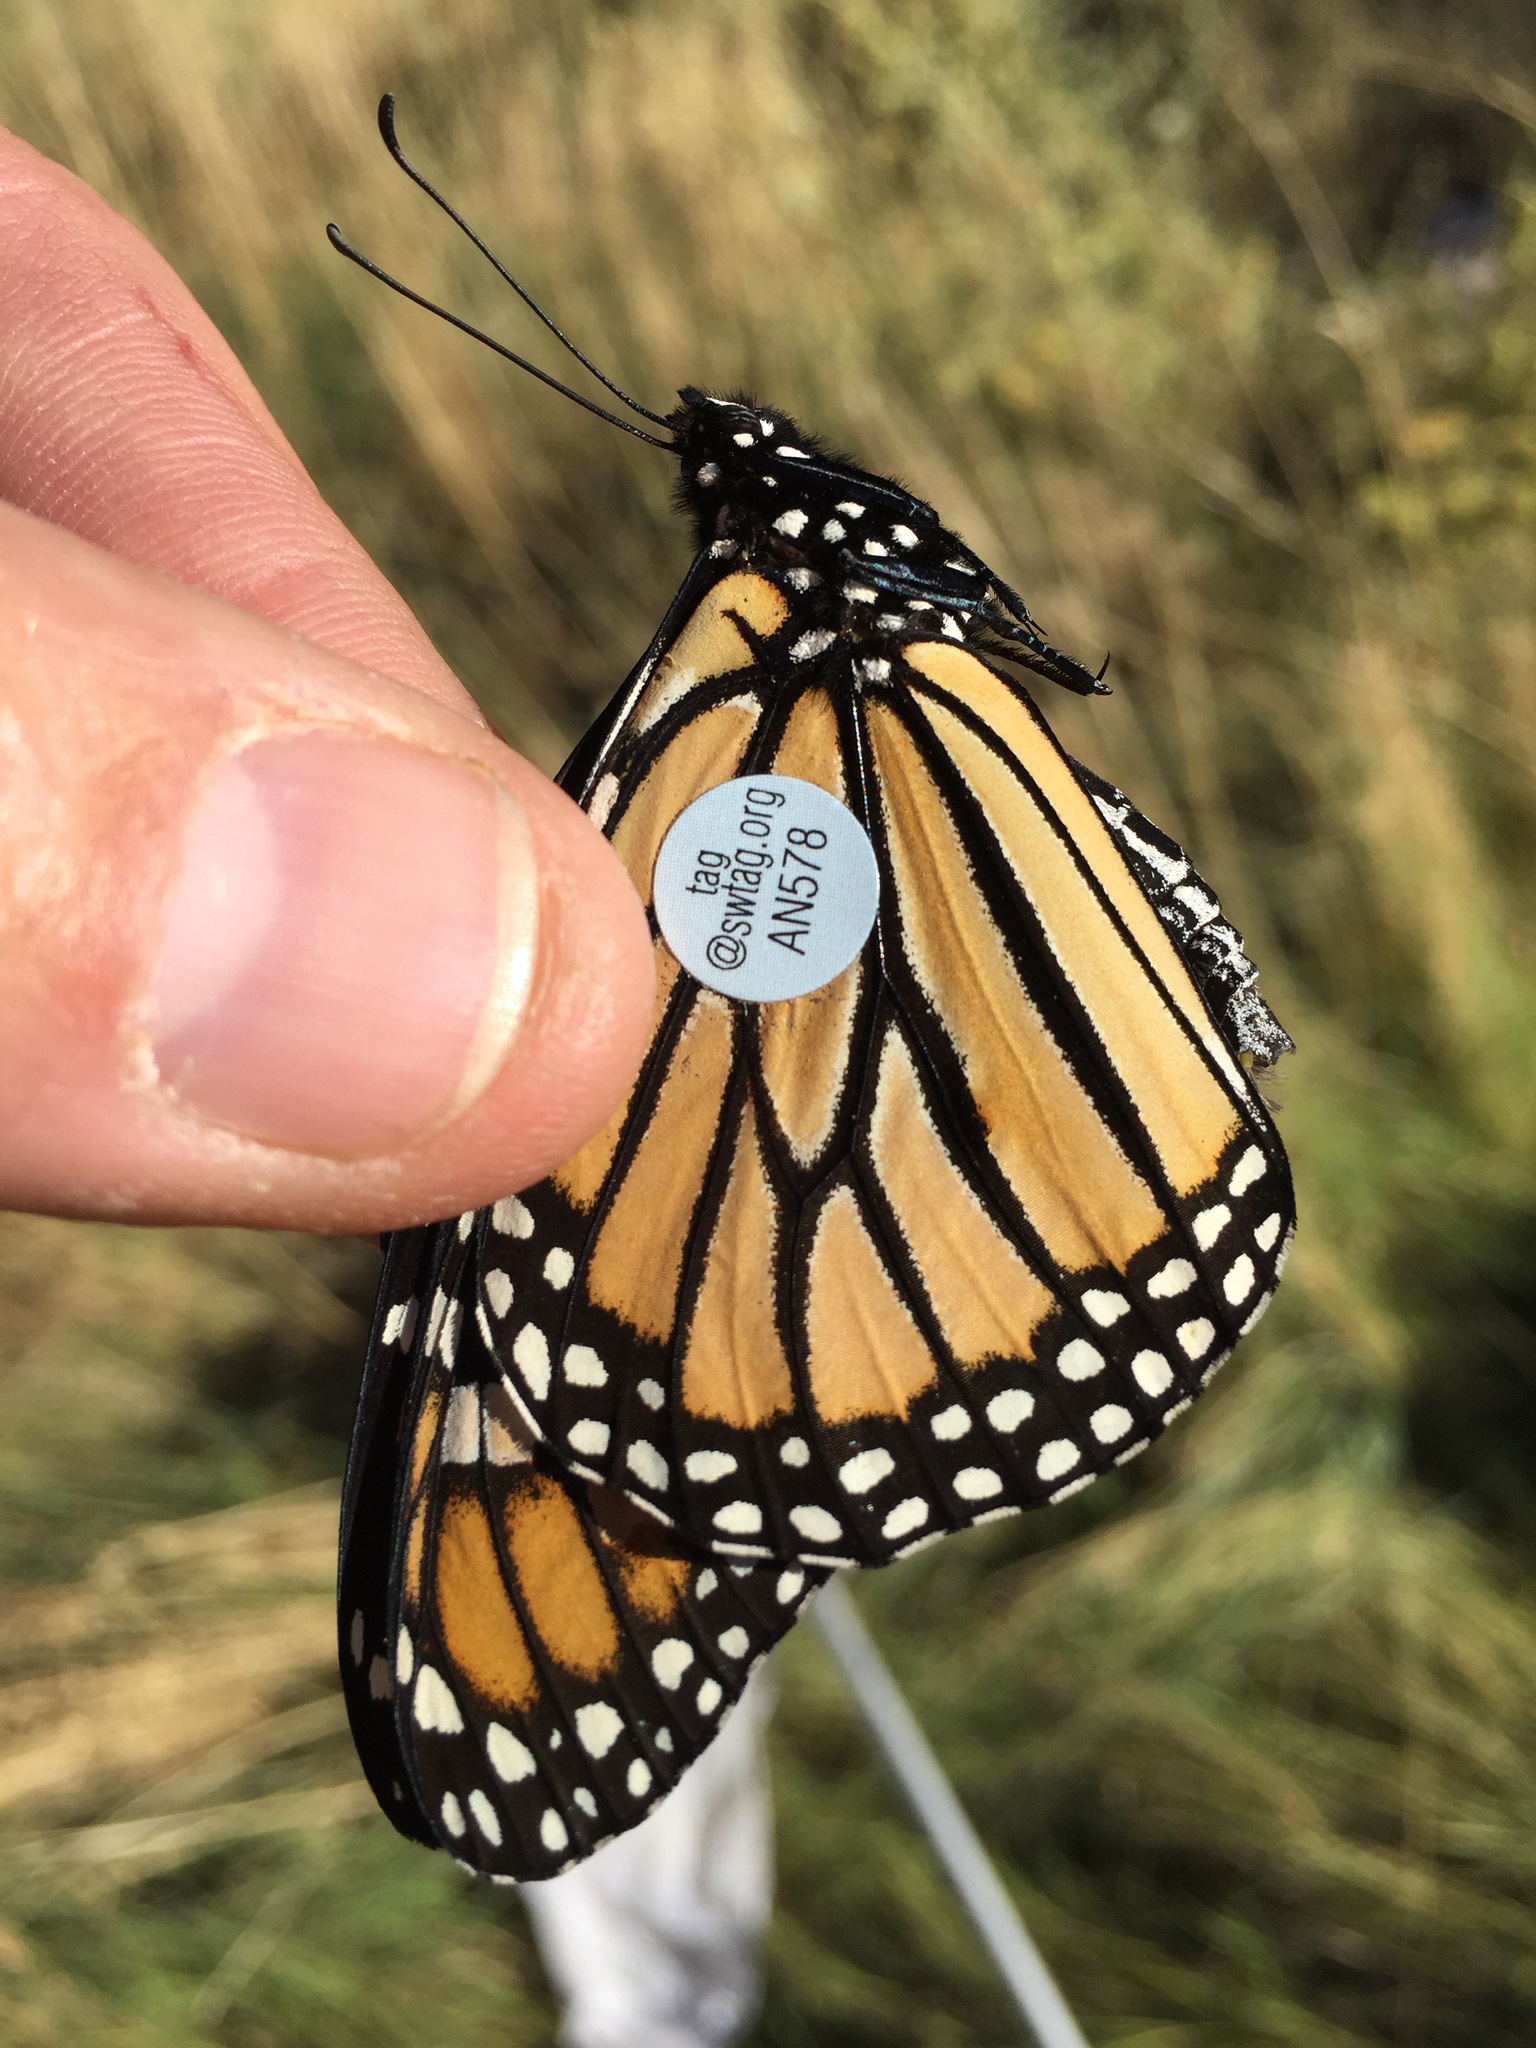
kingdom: Animalia
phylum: Arthropoda
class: Insecta
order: Lepidoptera
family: Nymphalidae
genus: Danaus
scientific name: Danaus plexippus
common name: Monarch
